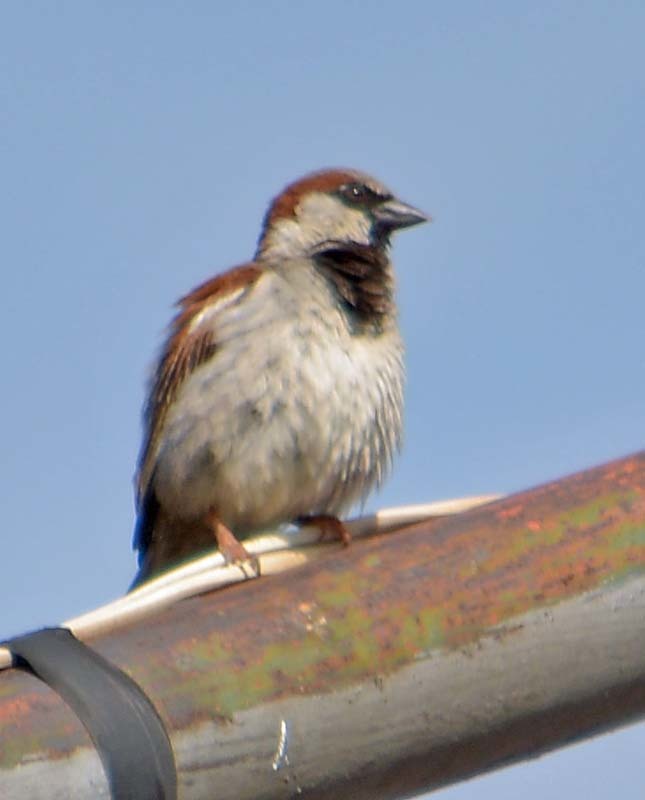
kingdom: Animalia
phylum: Chordata
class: Aves
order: Passeriformes
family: Passeridae
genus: Passer
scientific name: Passer domesticus
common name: House sparrow
